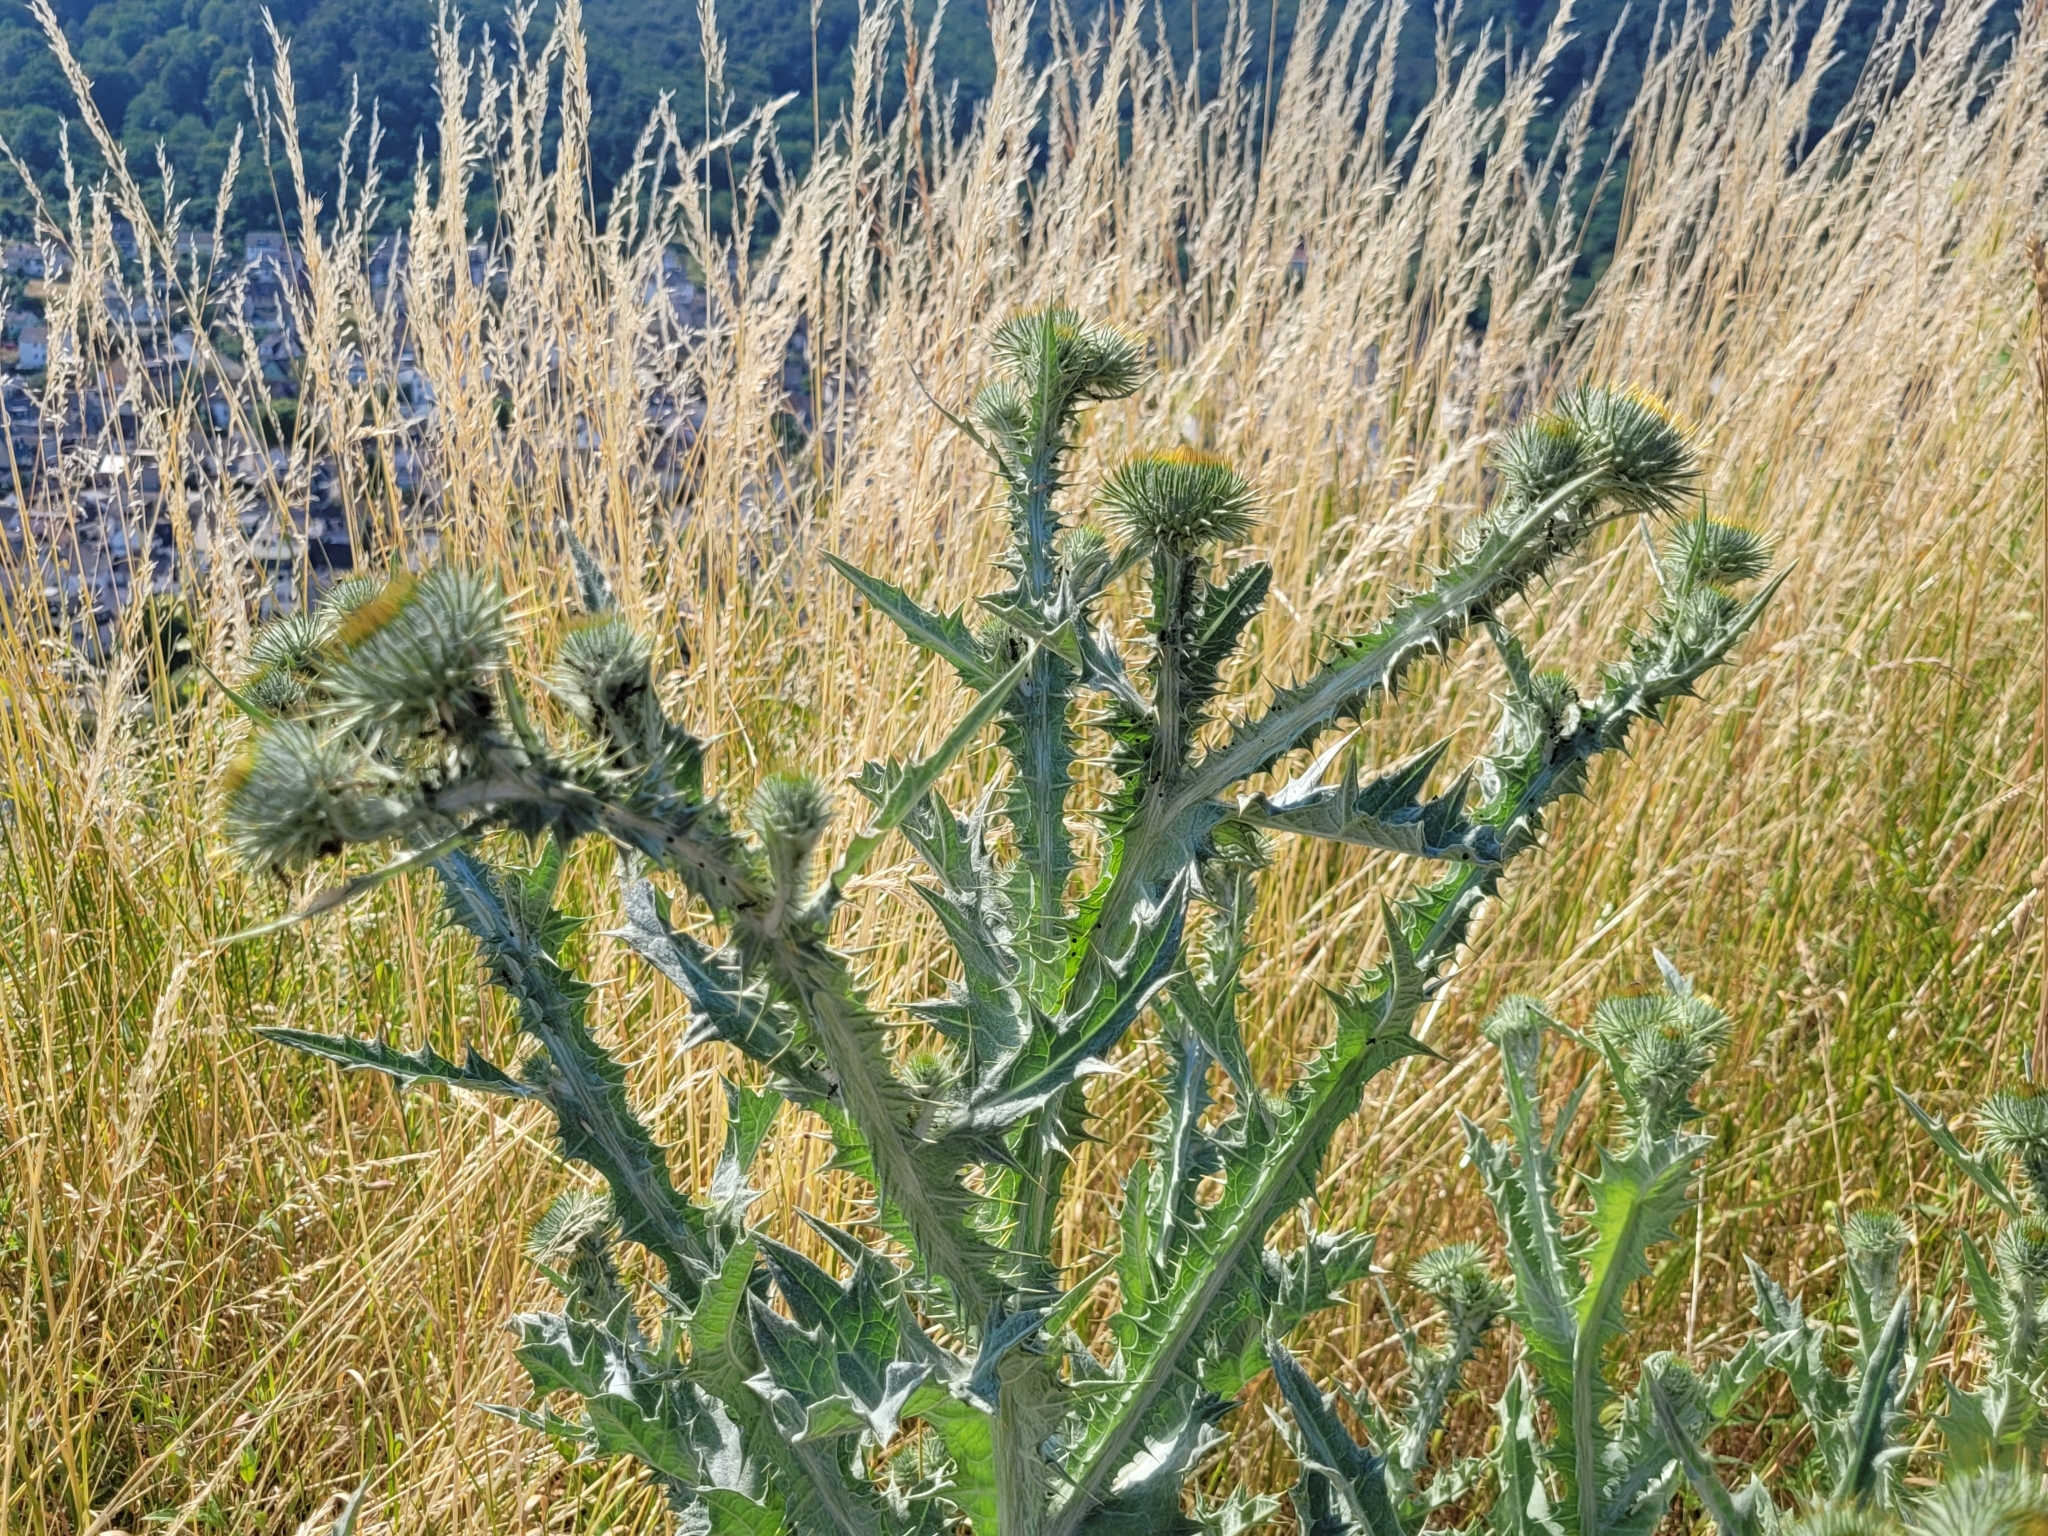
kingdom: Plantae
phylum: Tracheophyta
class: Magnoliopsida
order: Asterales
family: Asteraceae
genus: Onopordum
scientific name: Onopordum acanthium
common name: Scotch thistle
